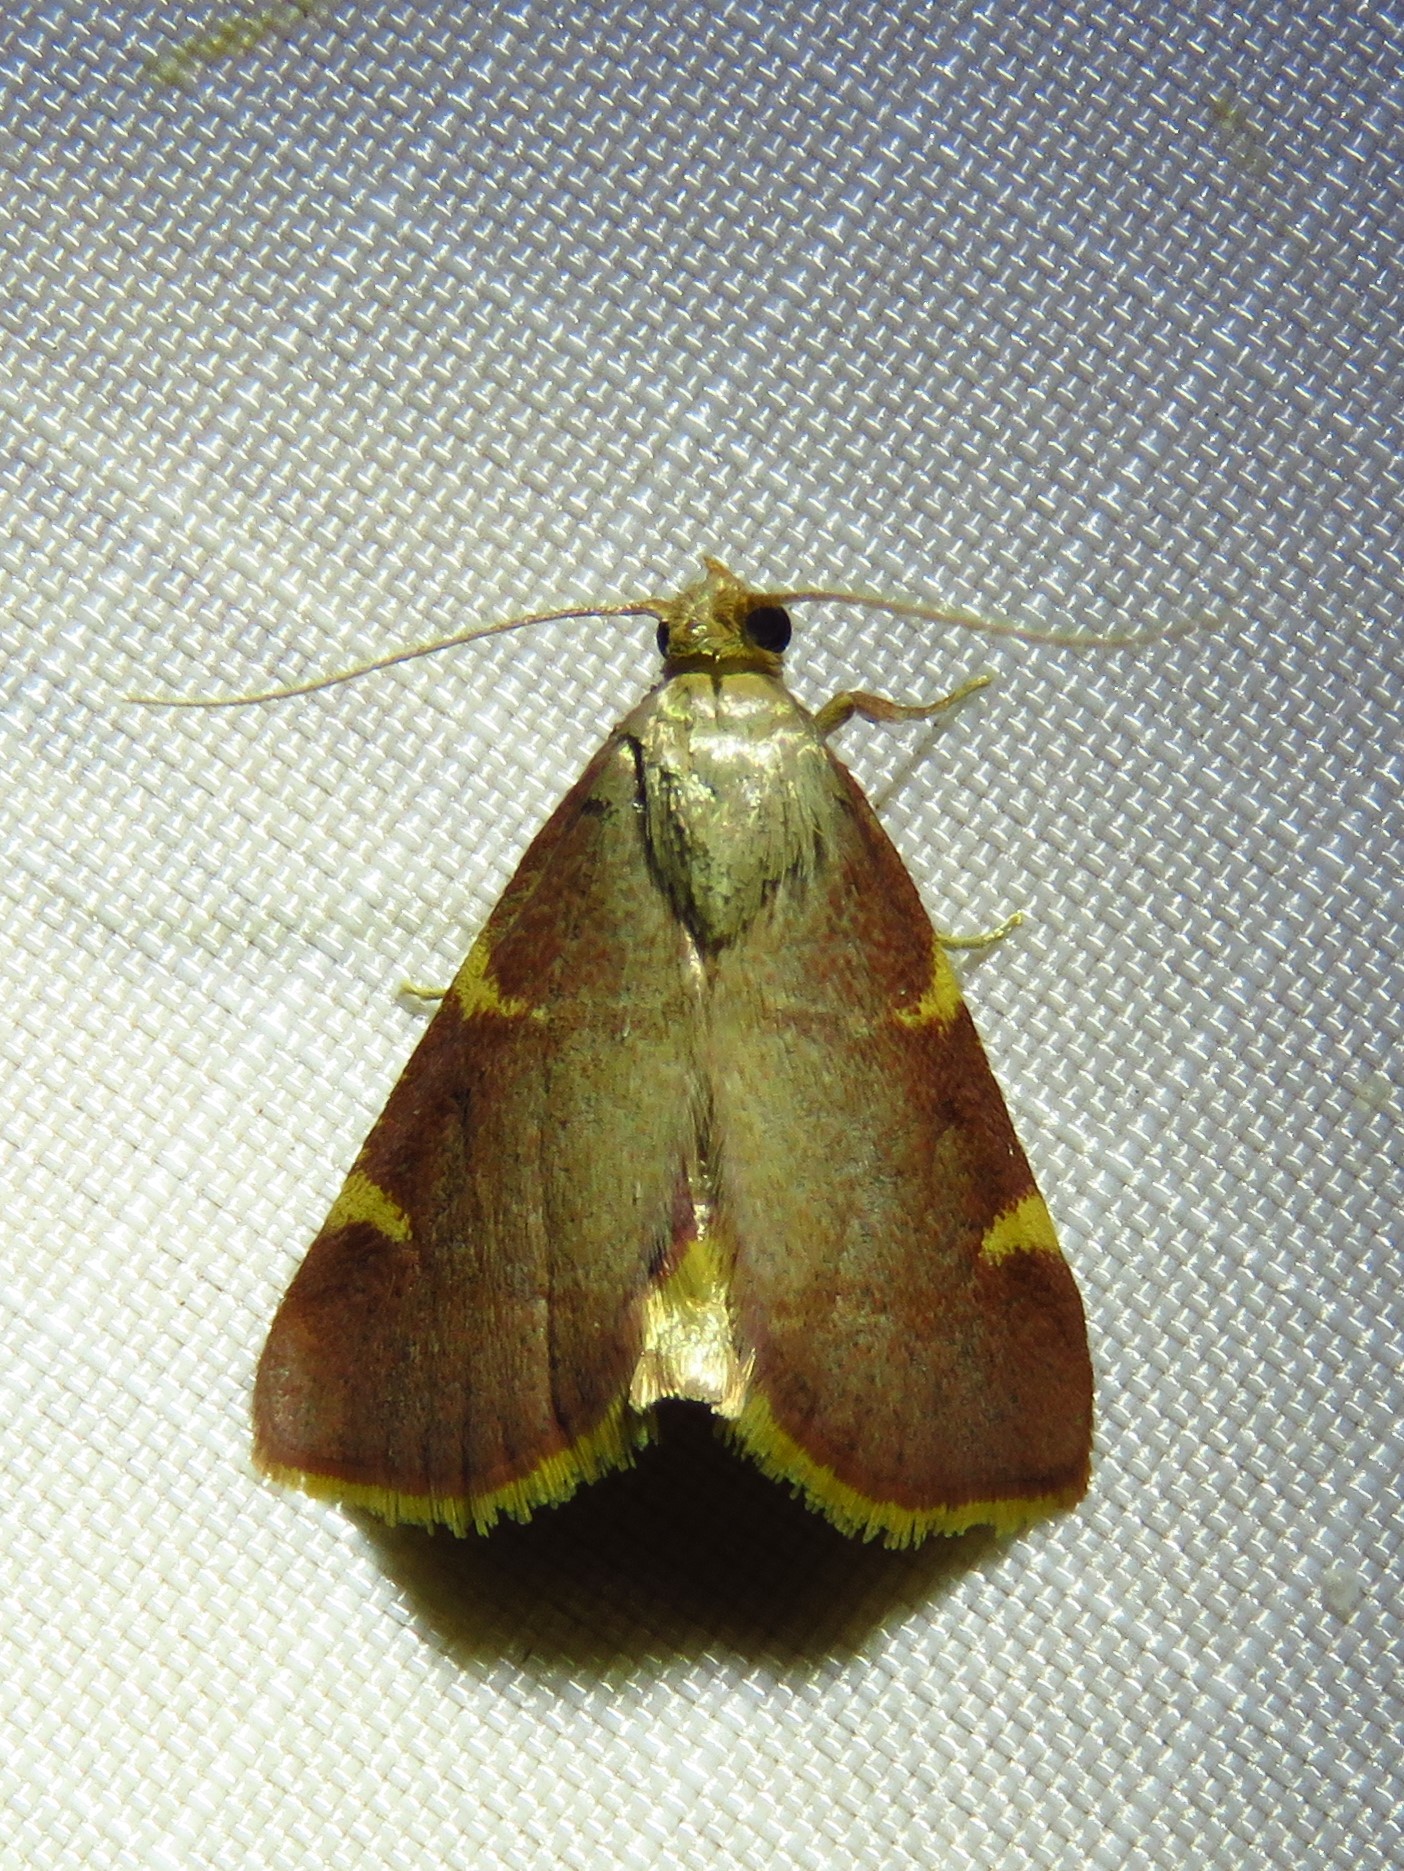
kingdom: Animalia
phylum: Arthropoda
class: Insecta
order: Lepidoptera
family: Pyralidae
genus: Hypsopygia
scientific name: Hypsopygia olinalis
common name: Yellow-fringed dolichomia moth
